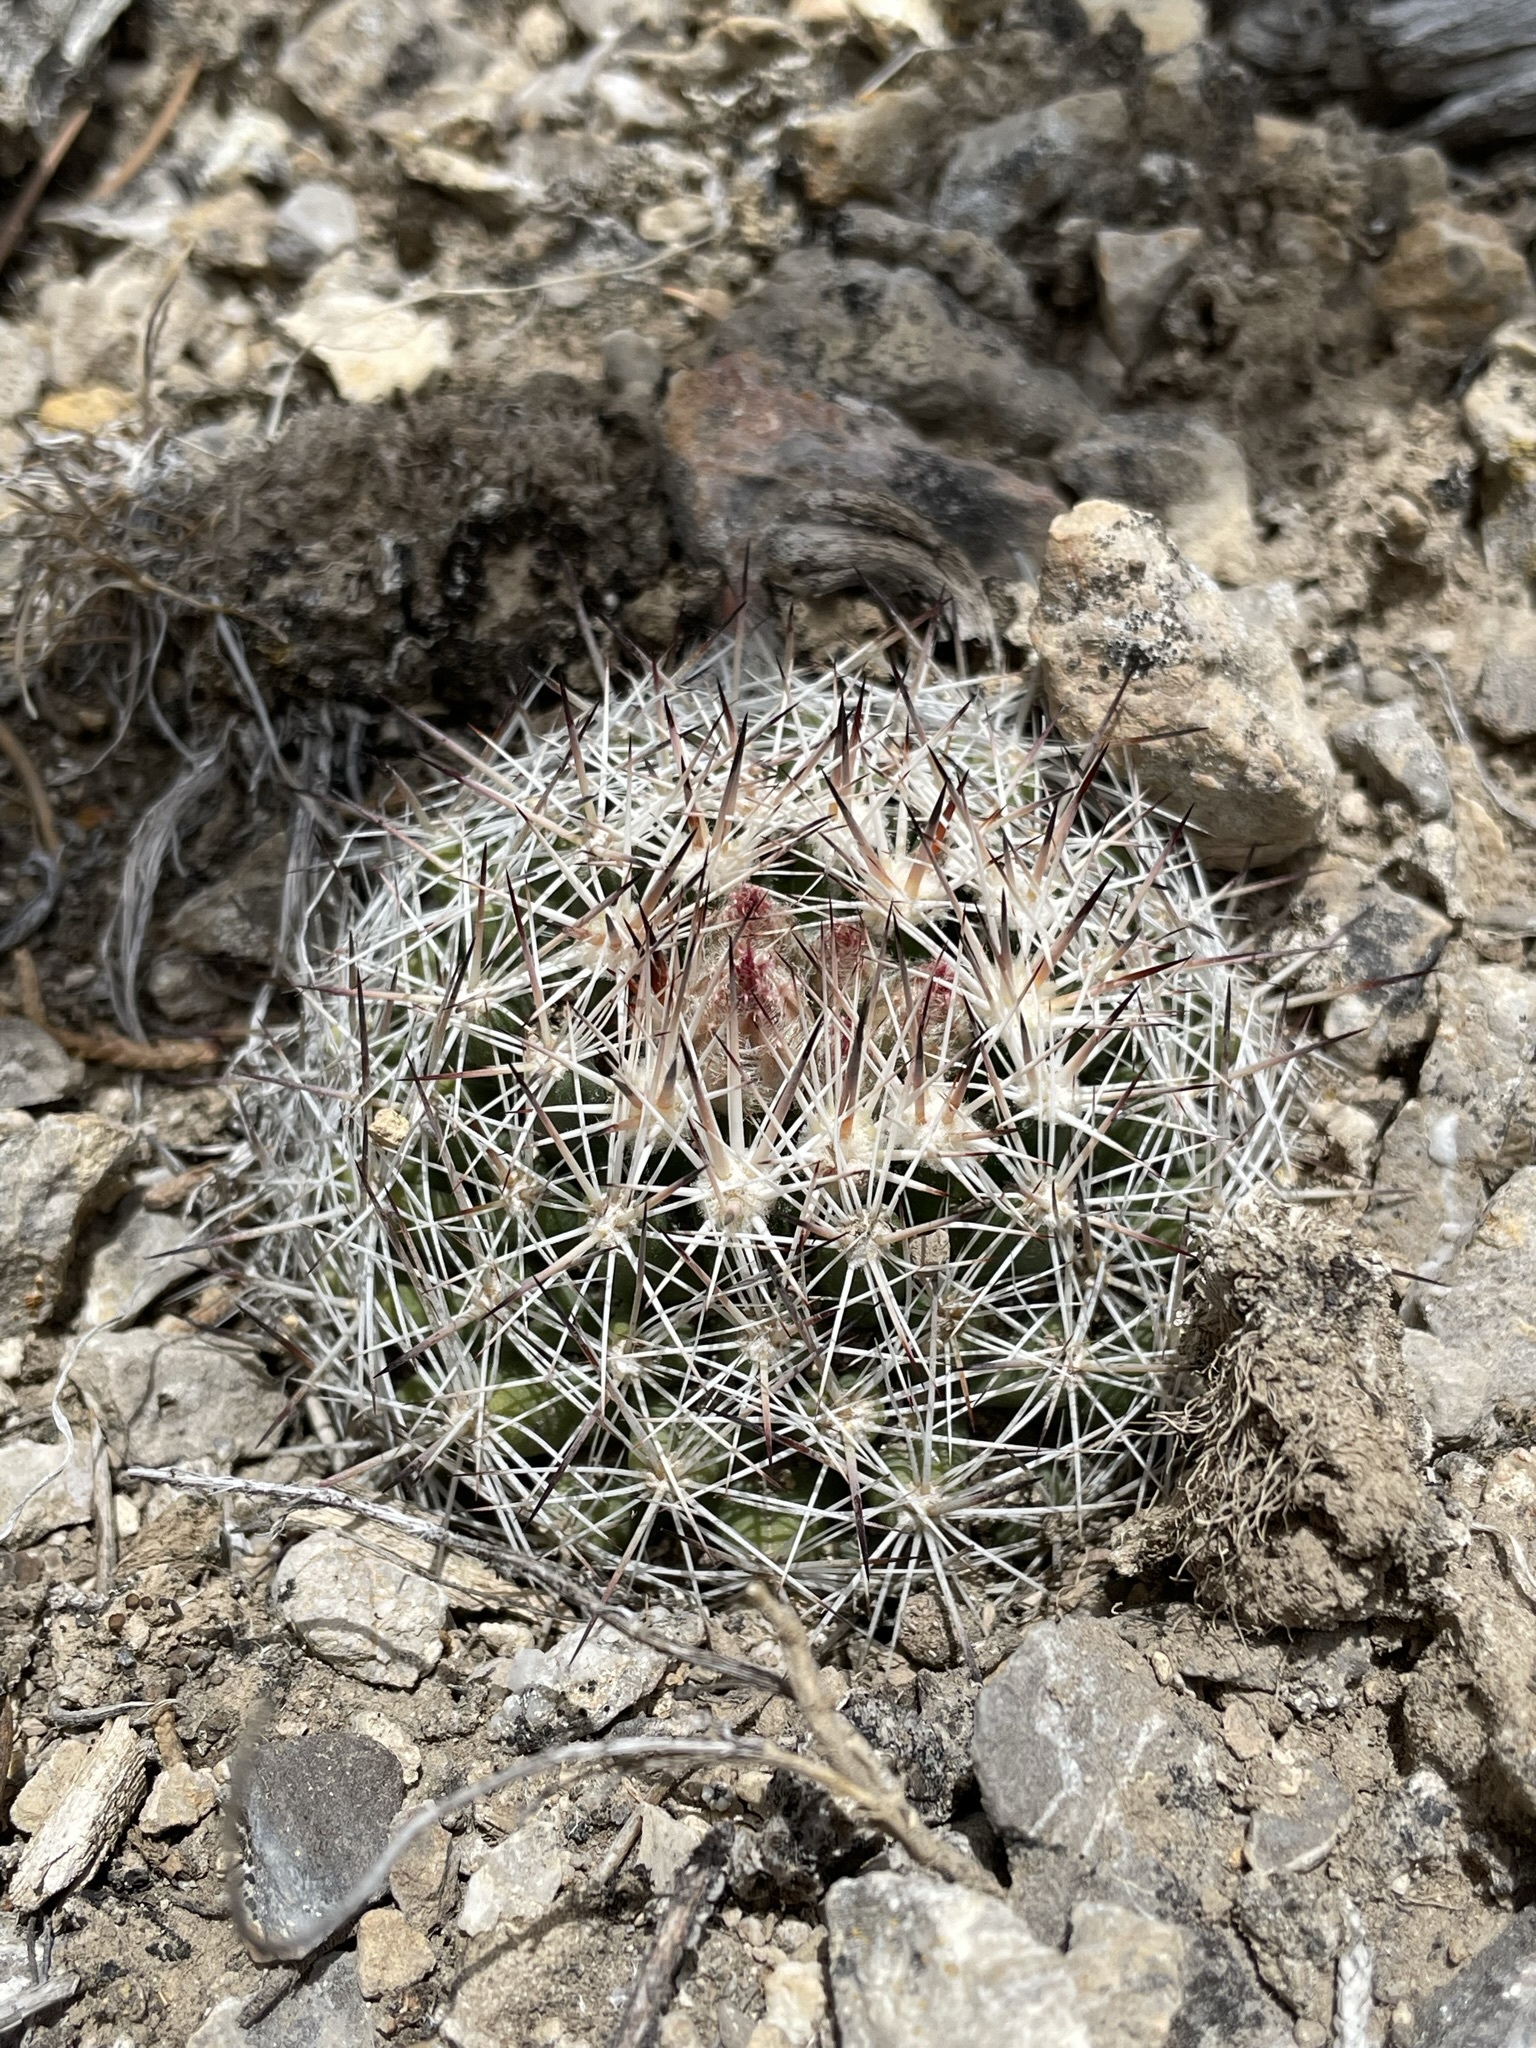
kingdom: Plantae
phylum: Tracheophyta
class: Magnoliopsida
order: Caryophyllales
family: Cactaceae
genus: Pelecyphora
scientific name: Pelecyphora vivipara
